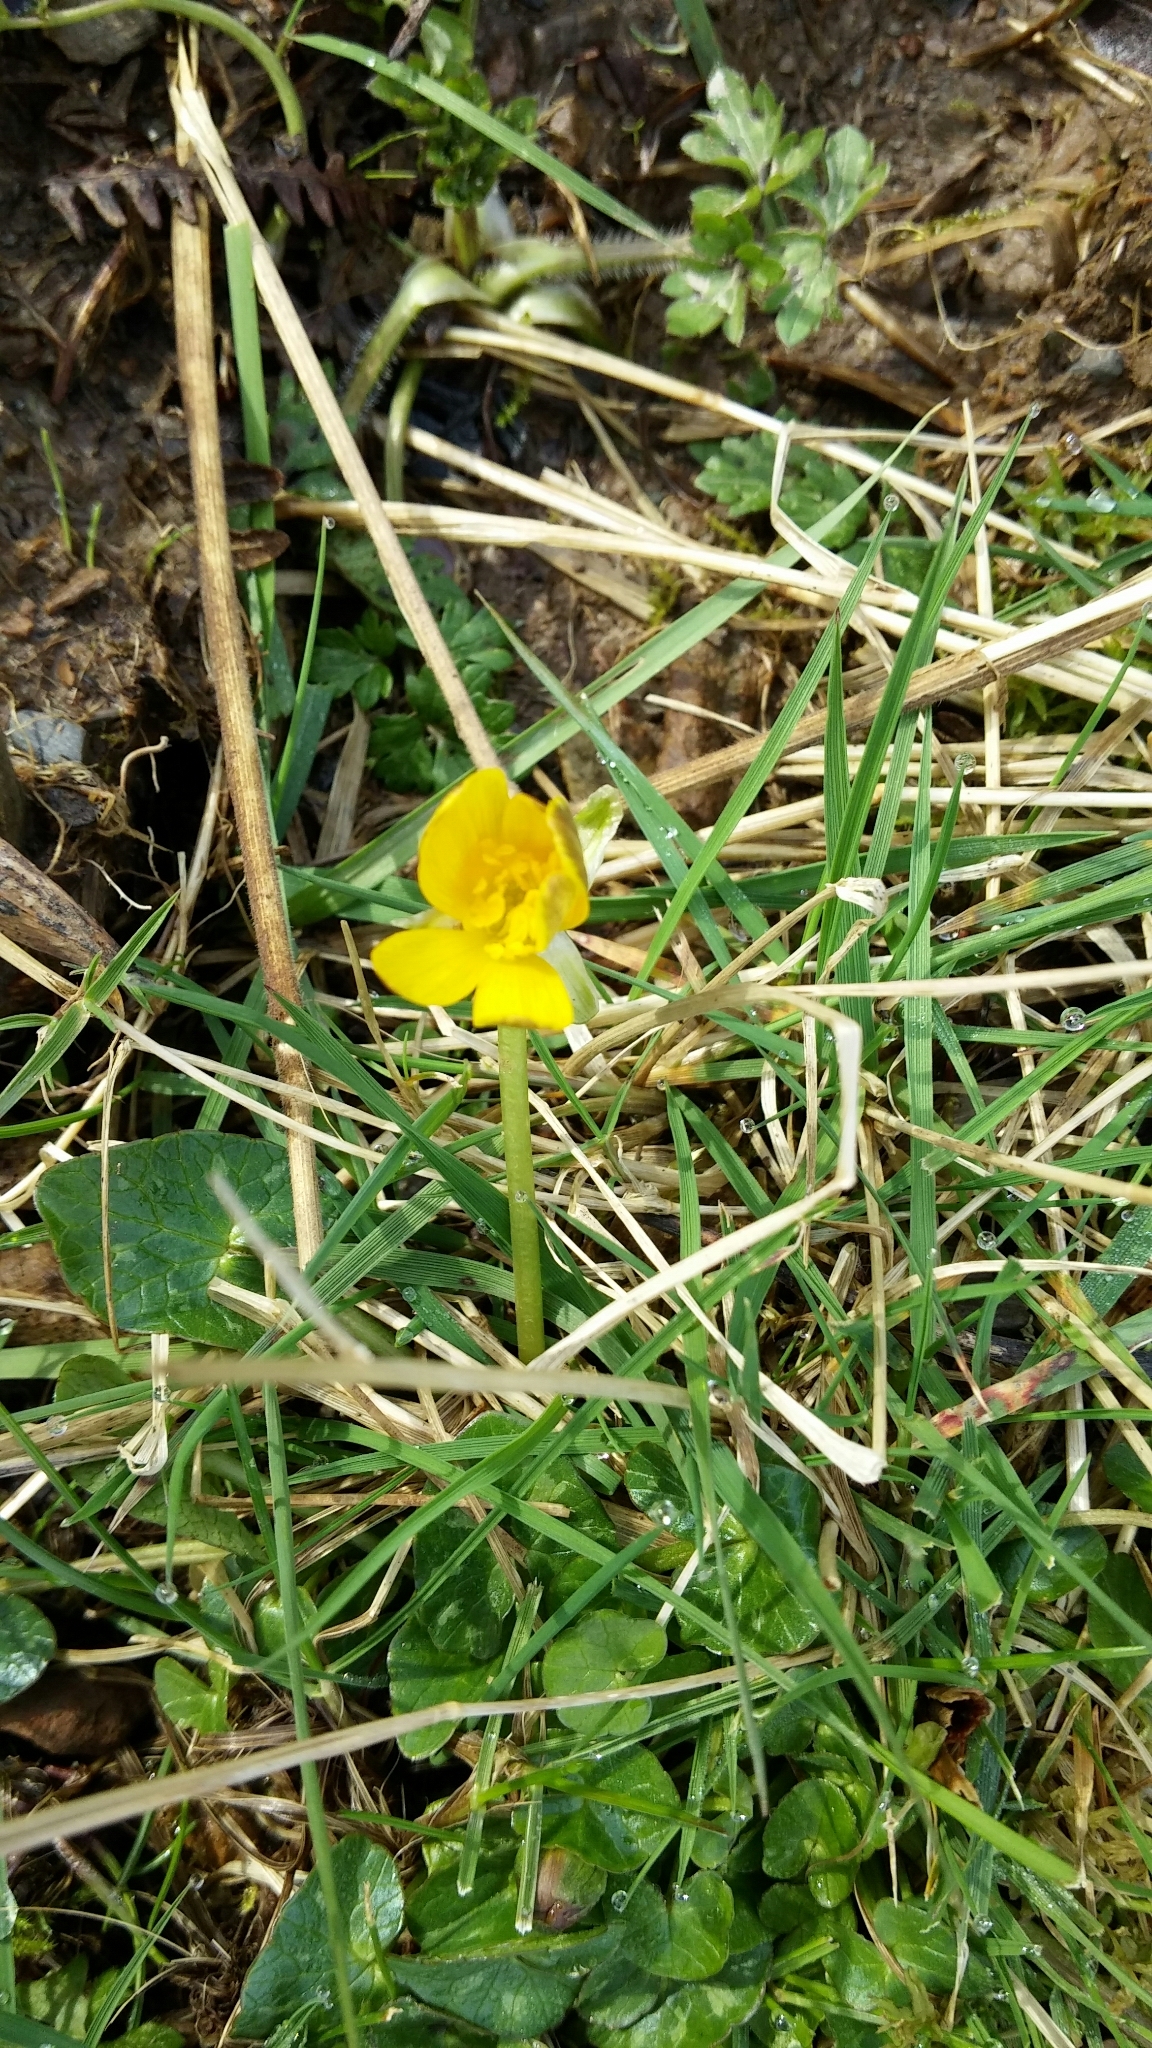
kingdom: Plantae
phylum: Tracheophyta
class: Magnoliopsida
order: Ranunculales
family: Ranunculaceae
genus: Ficaria
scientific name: Ficaria verna
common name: Lesser celandine
